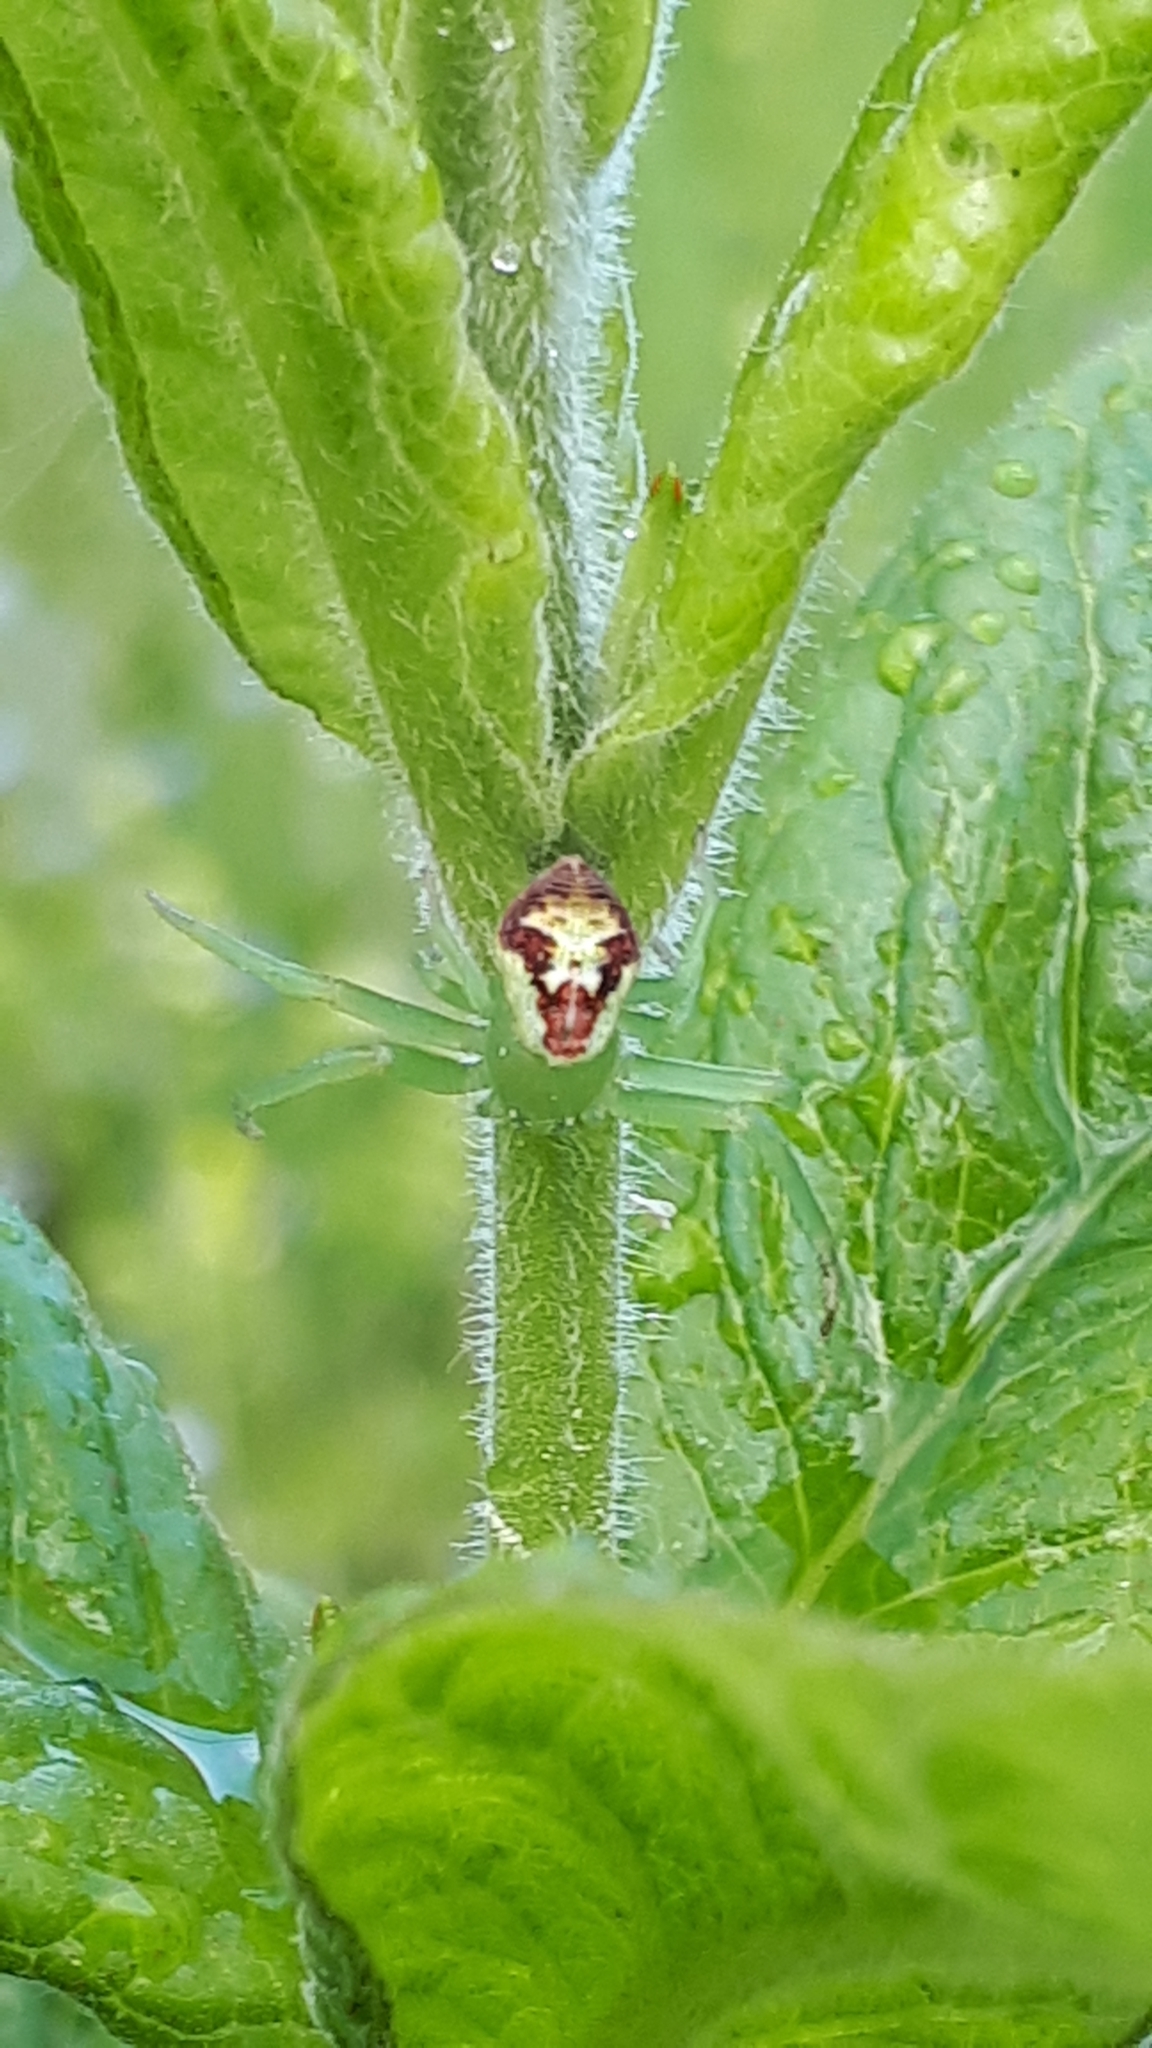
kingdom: Animalia
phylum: Arthropoda
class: Arachnida
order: Araneae
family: Thomisidae
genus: Ebrechtella
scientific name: Ebrechtella tricuspidata
